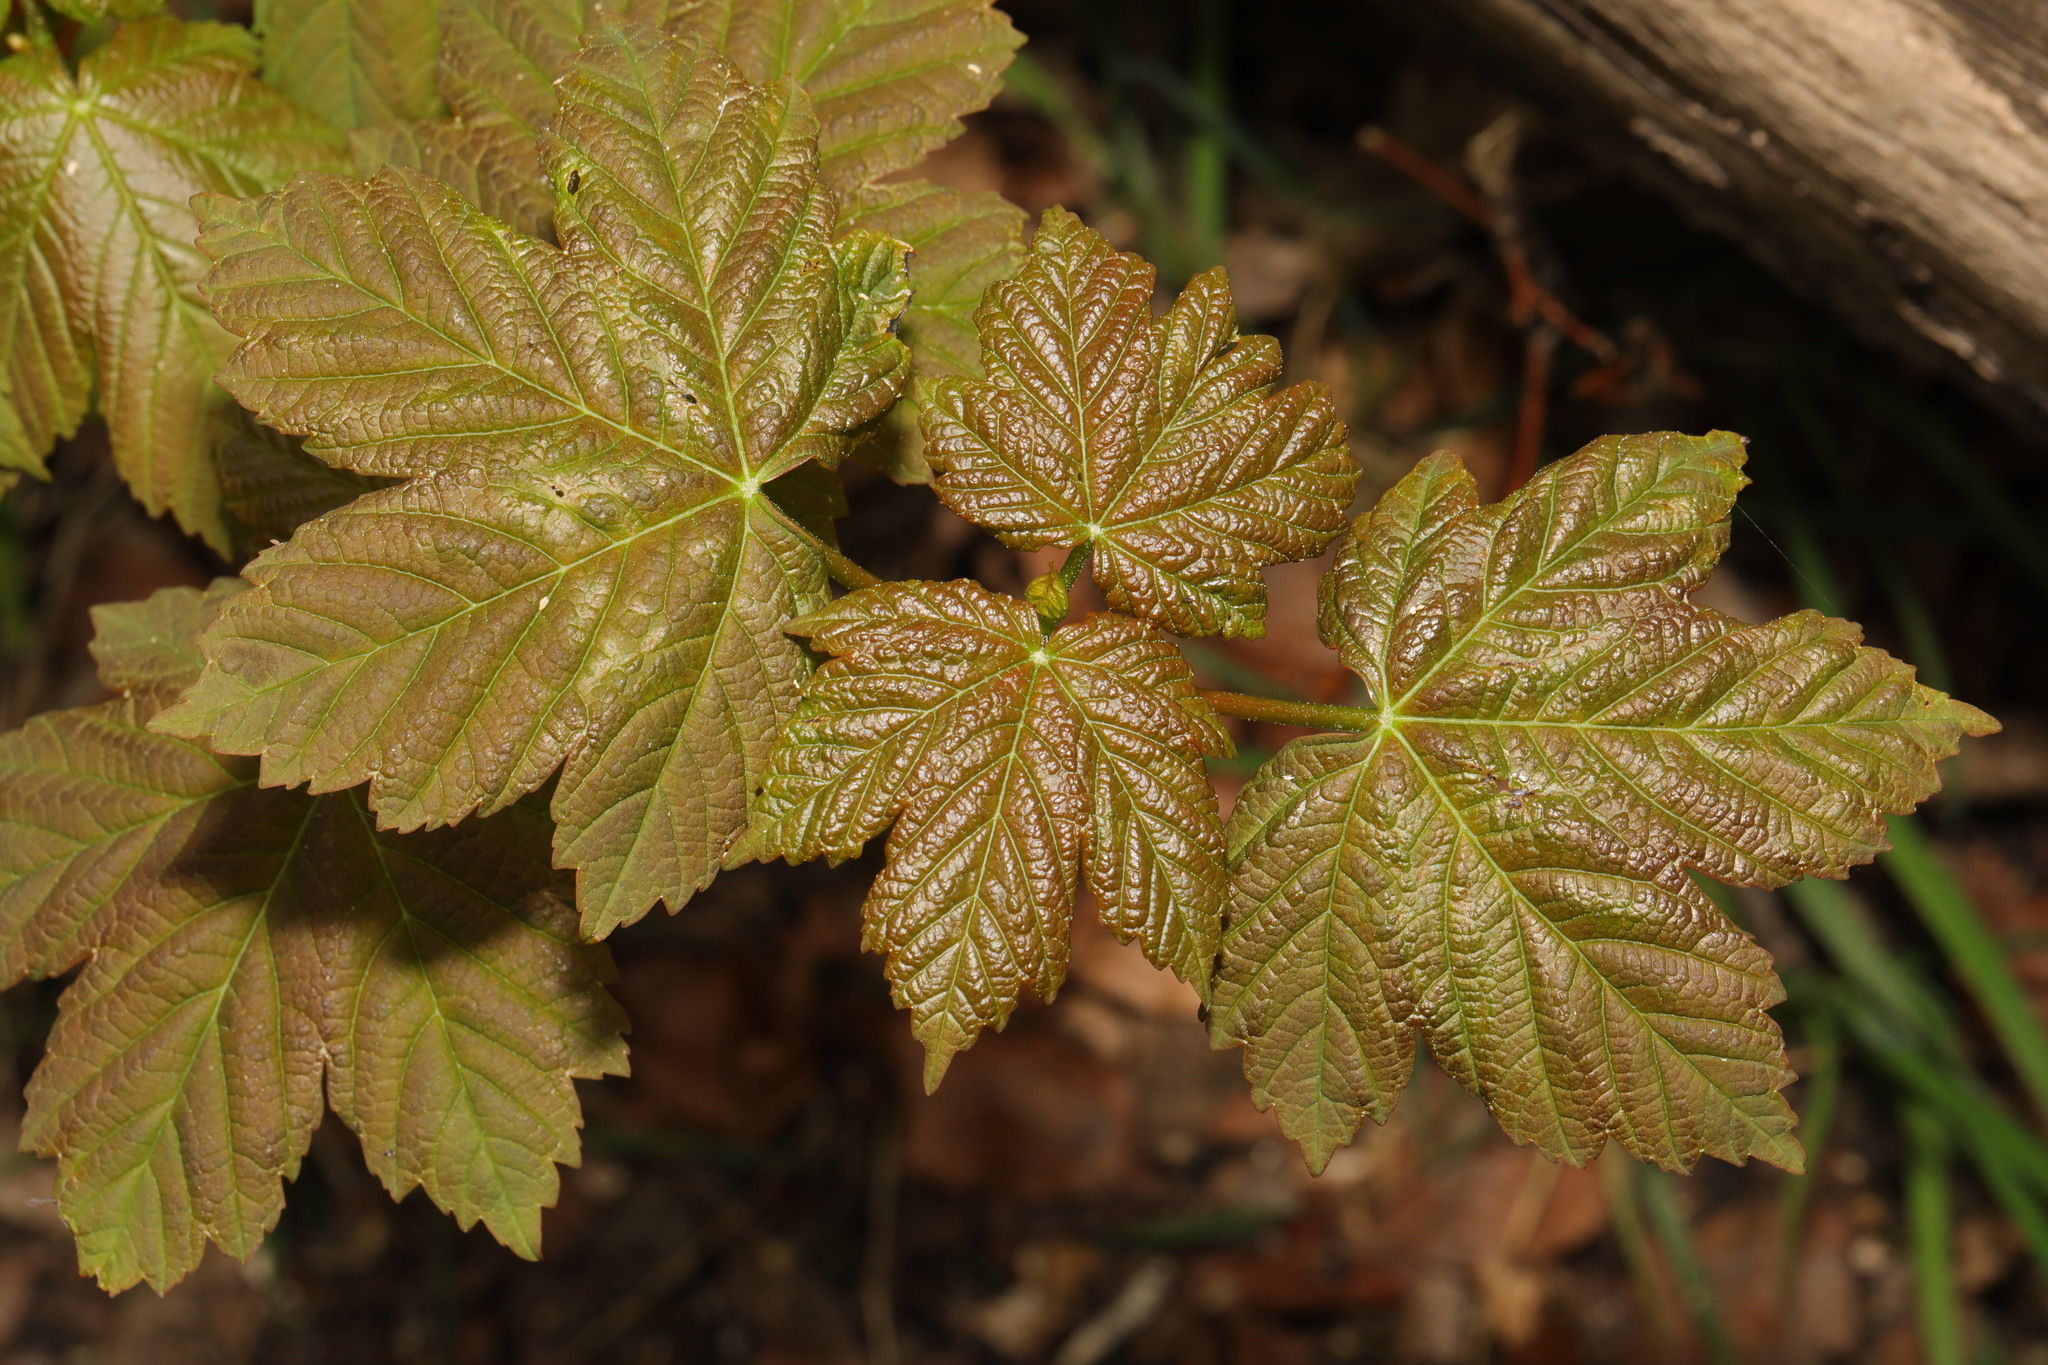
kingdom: Plantae
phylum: Tracheophyta
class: Magnoliopsida
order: Sapindales
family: Sapindaceae
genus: Acer
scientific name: Acer pseudoplatanus
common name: Sycamore
